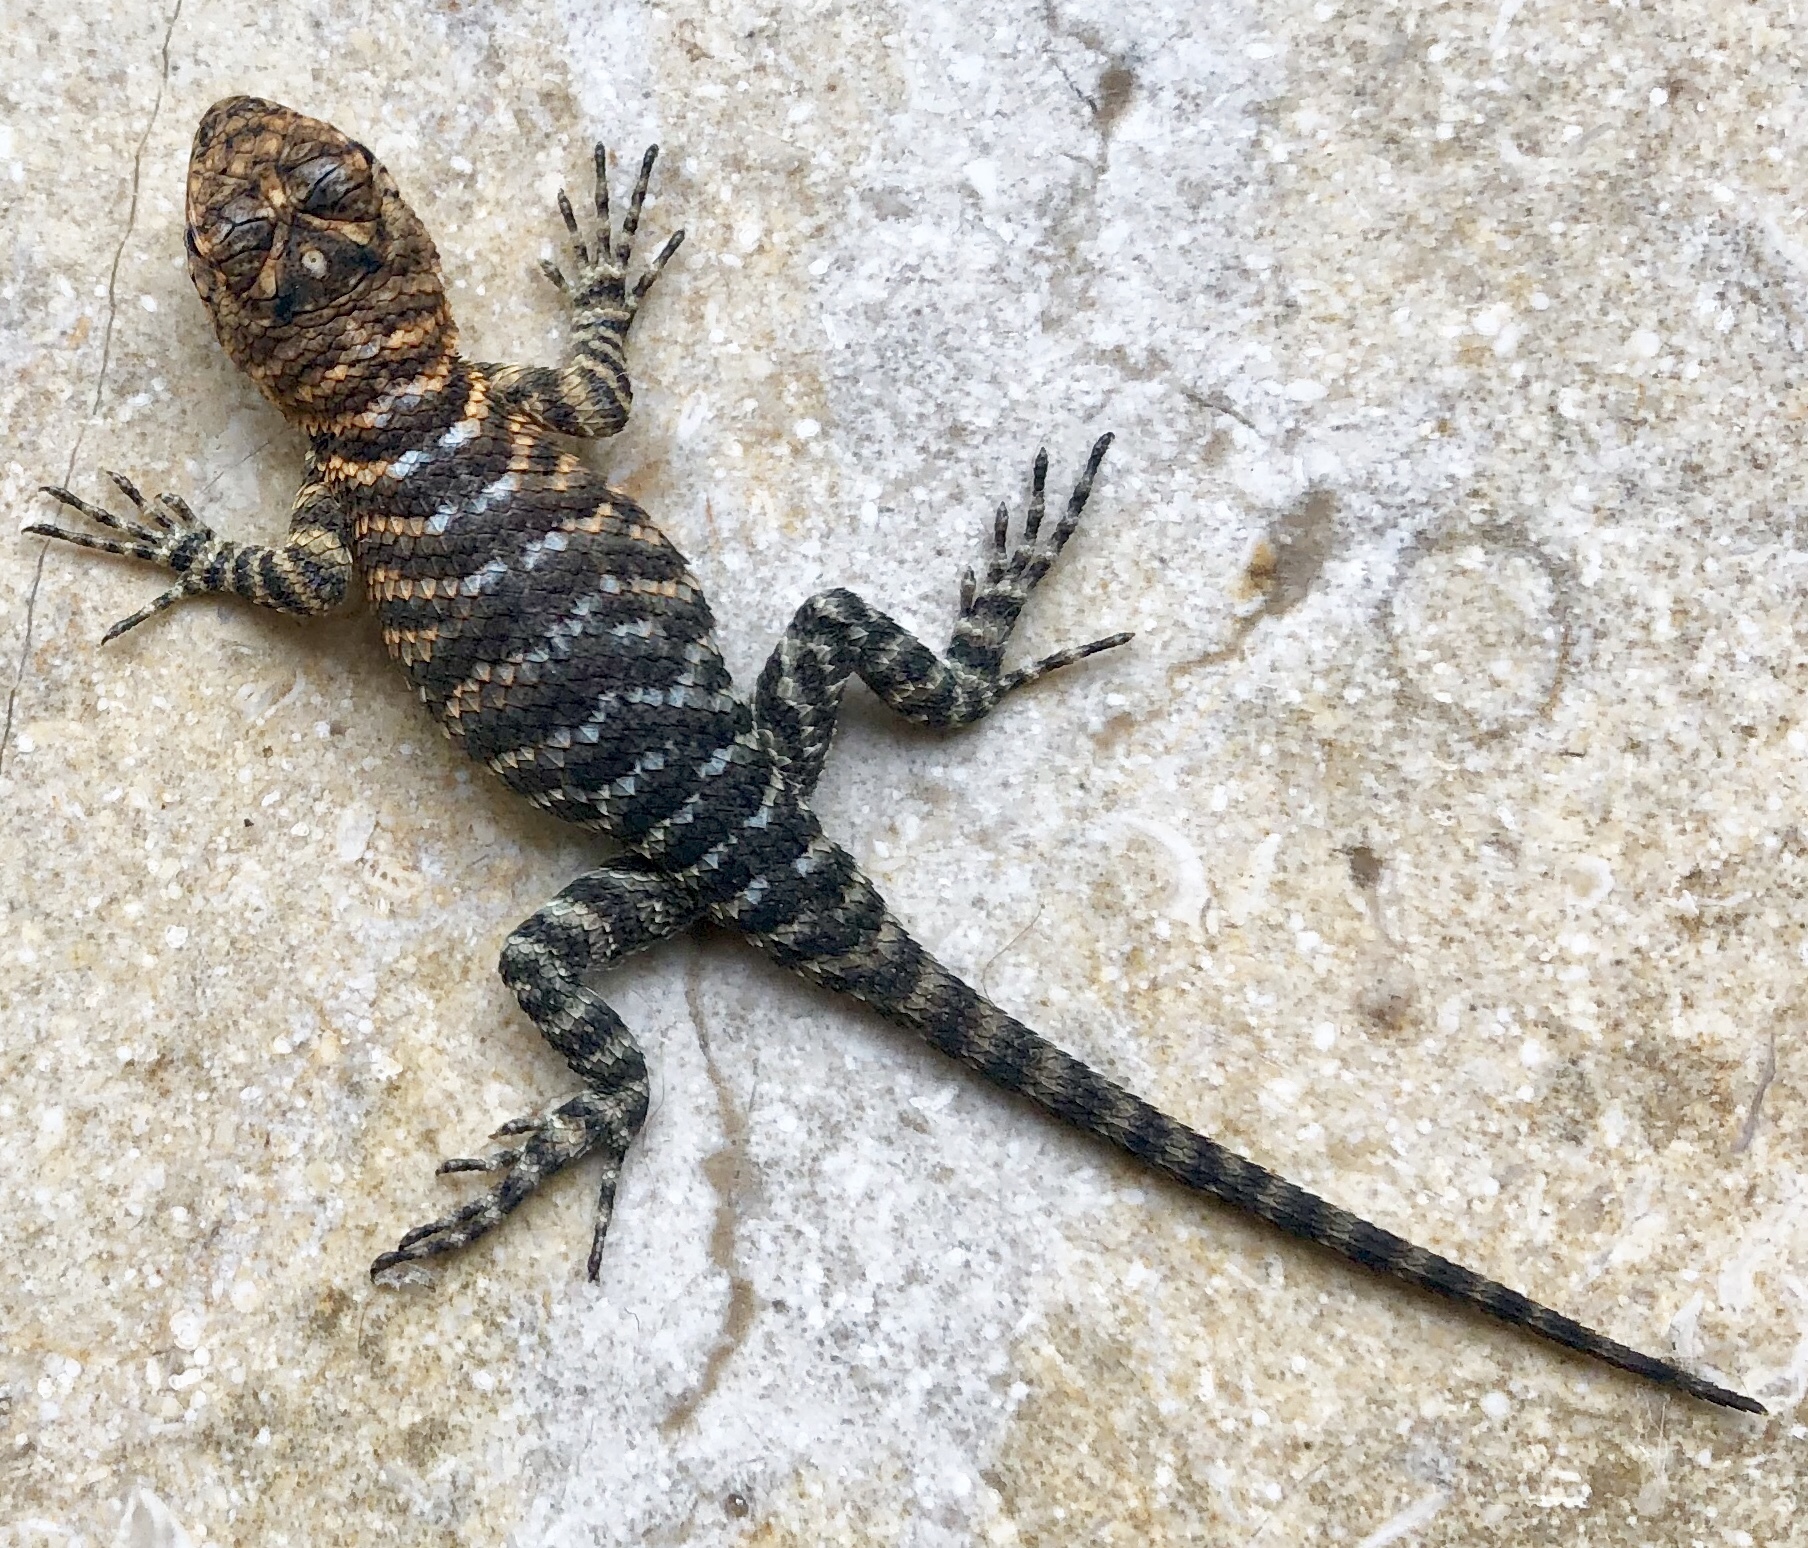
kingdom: Animalia
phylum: Chordata
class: Squamata
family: Phrynosomatidae
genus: Sceloporus
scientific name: Sceloporus orcutti
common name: Granite spiny lizard
